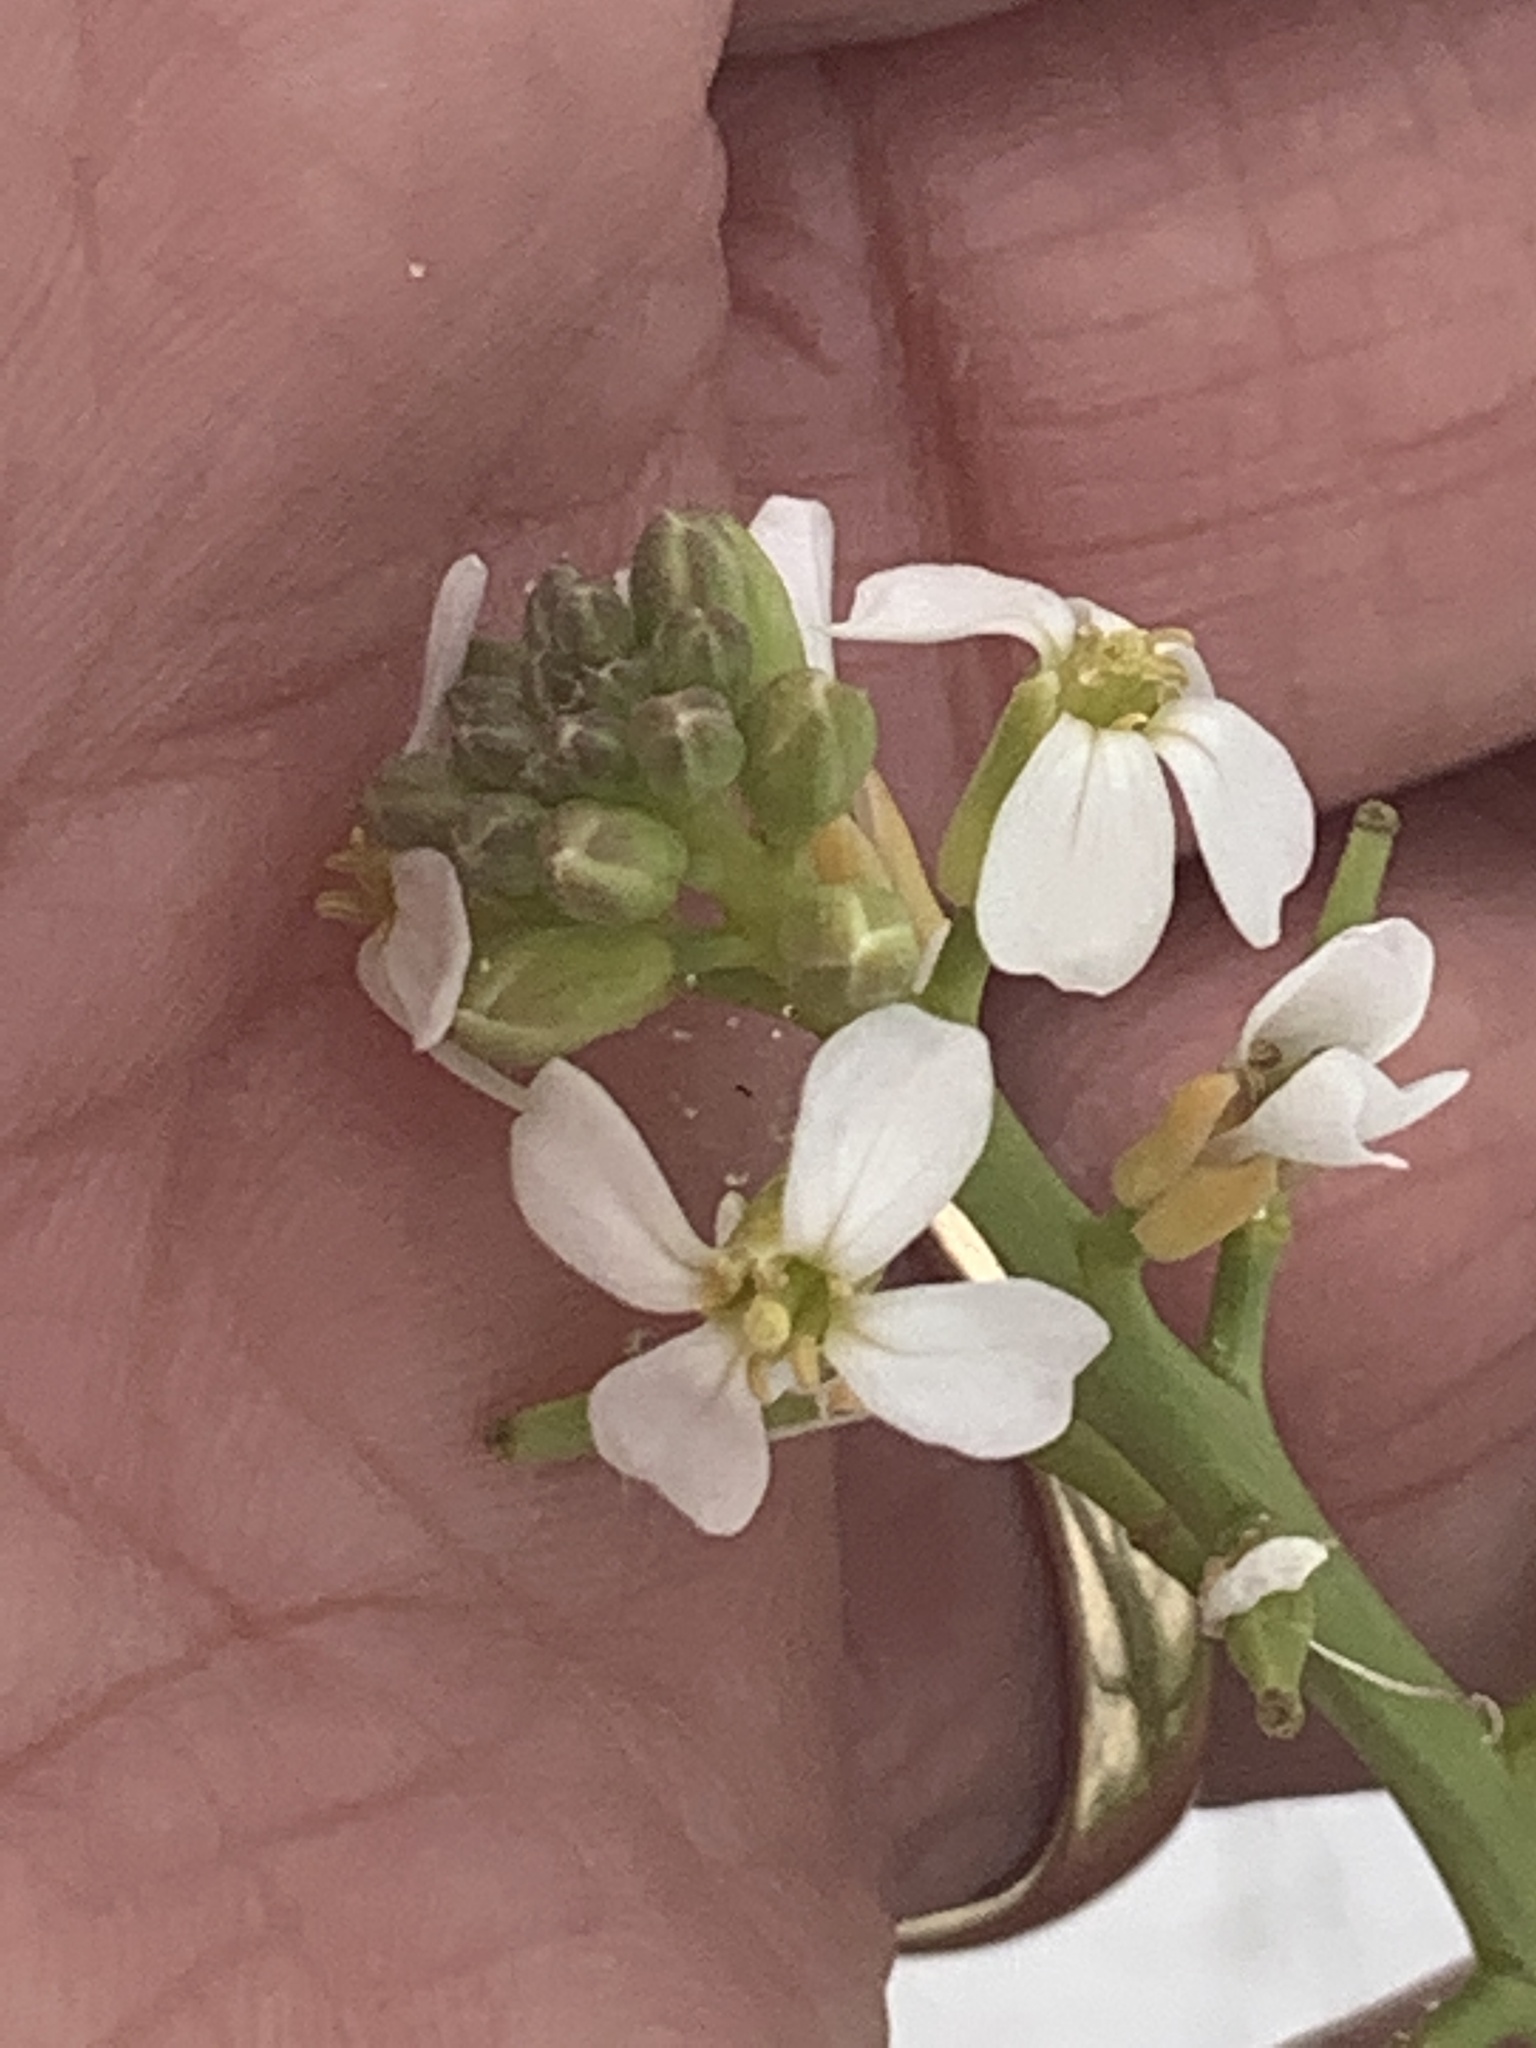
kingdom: Plantae
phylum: Tracheophyta
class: Magnoliopsida
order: Brassicales
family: Brassicaceae
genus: Cakile
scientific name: Cakile lanceolata
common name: Sea rocket
